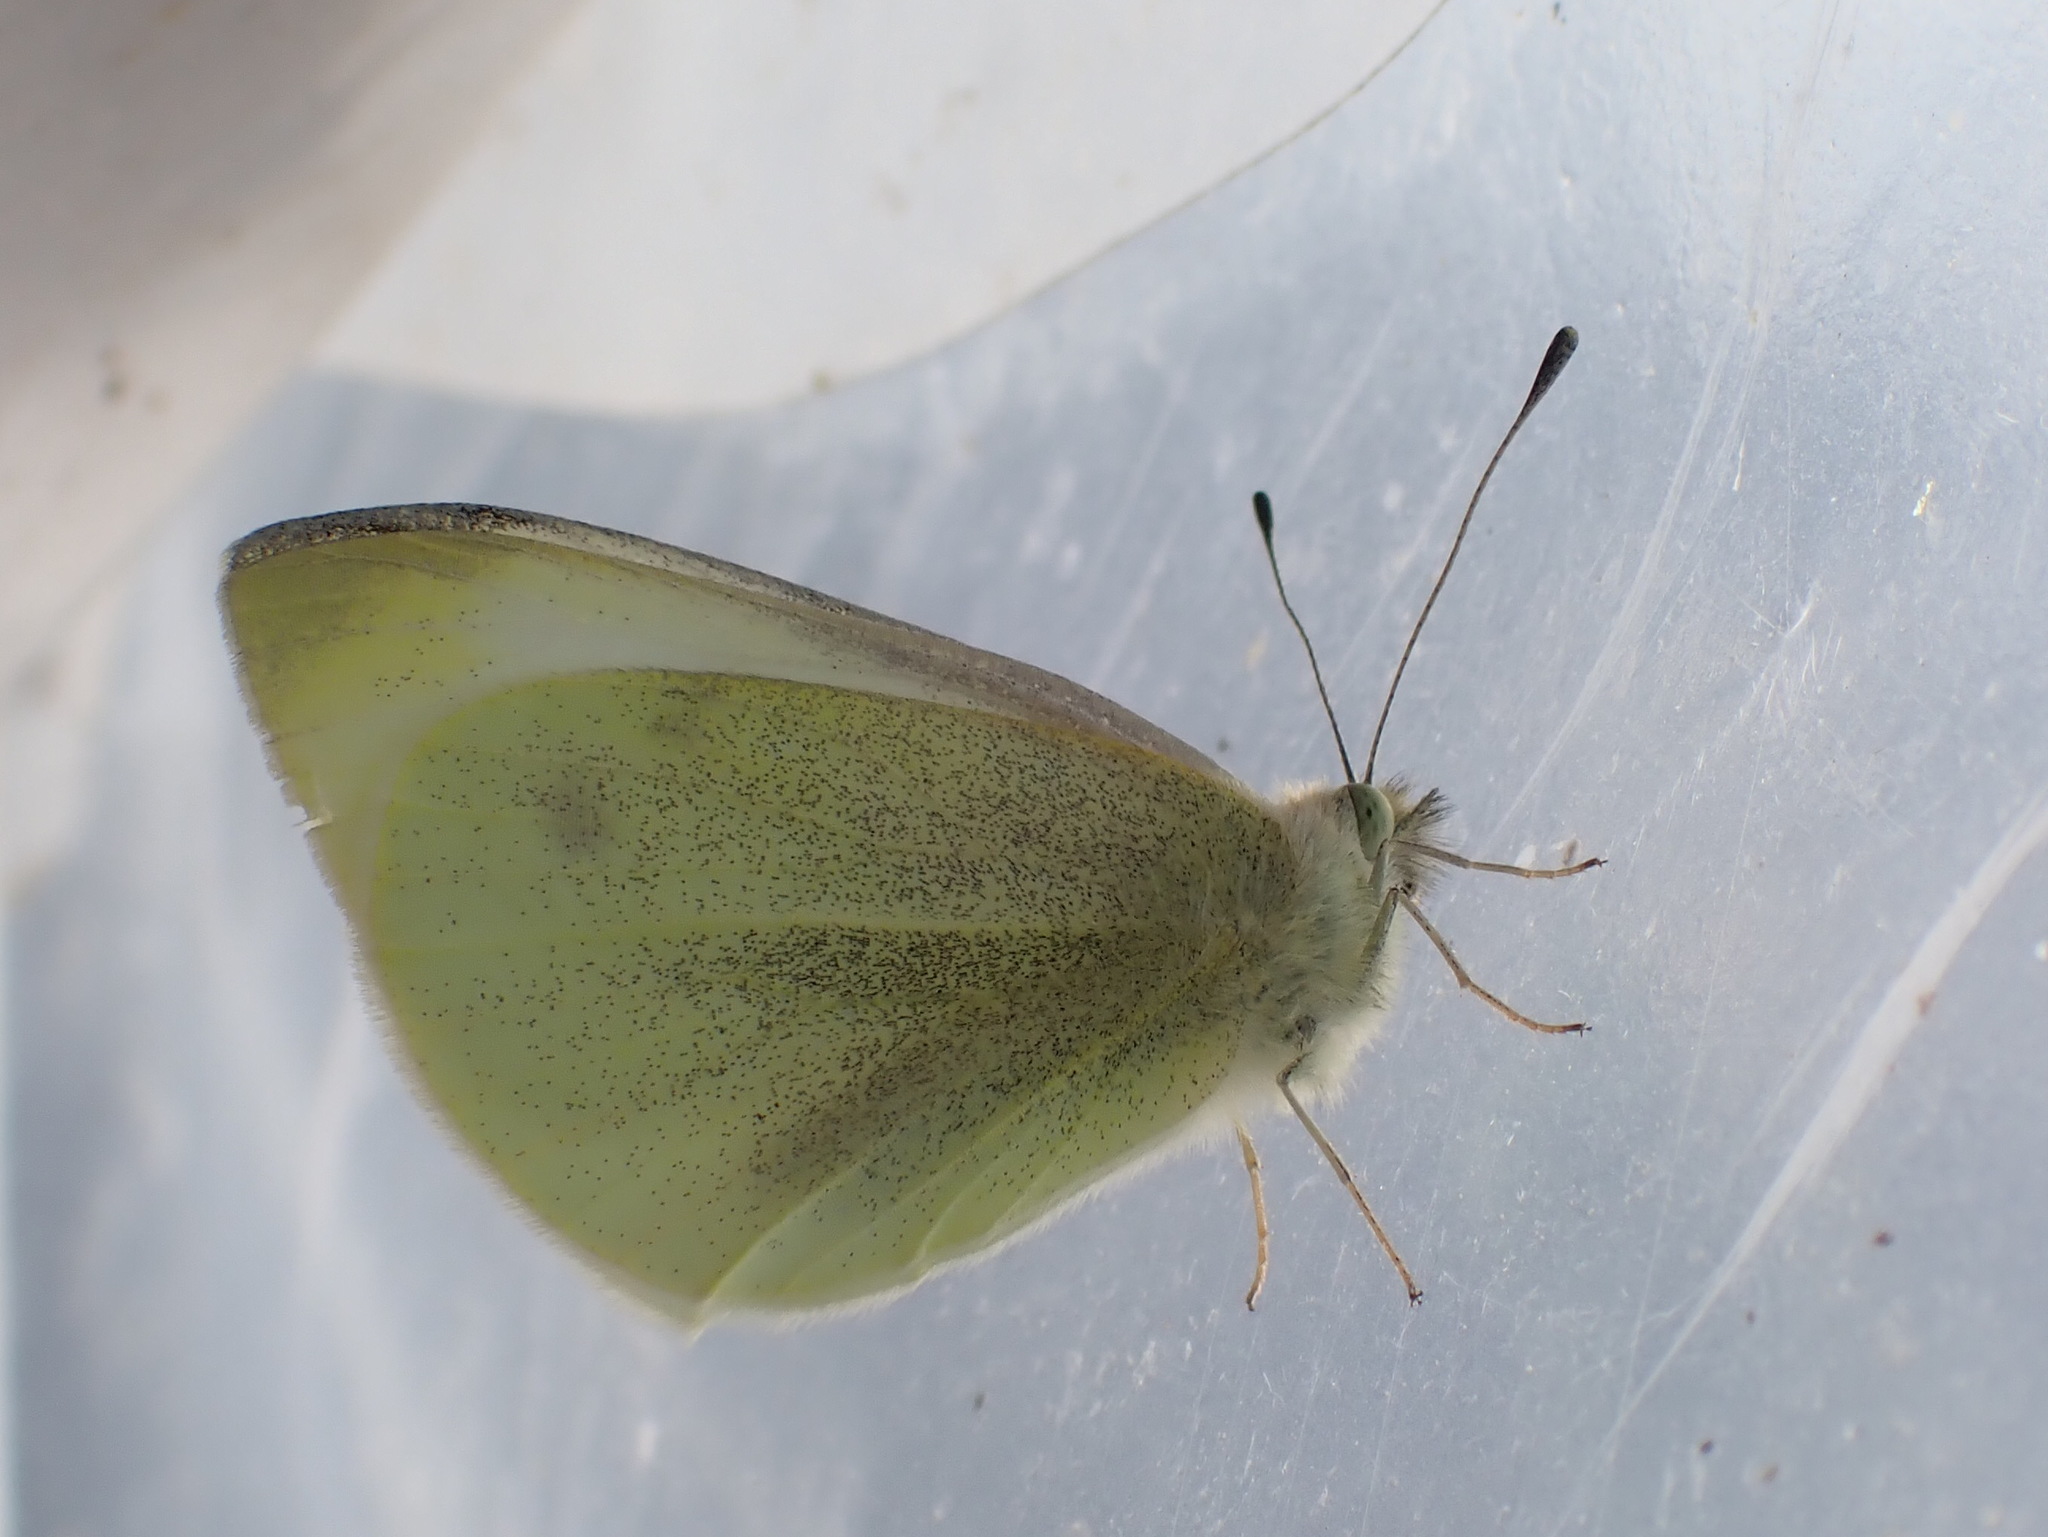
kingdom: Animalia
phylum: Arthropoda
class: Insecta
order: Lepidoptera
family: Pieridae
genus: Pieris
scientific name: Pieris rapae
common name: Small white
